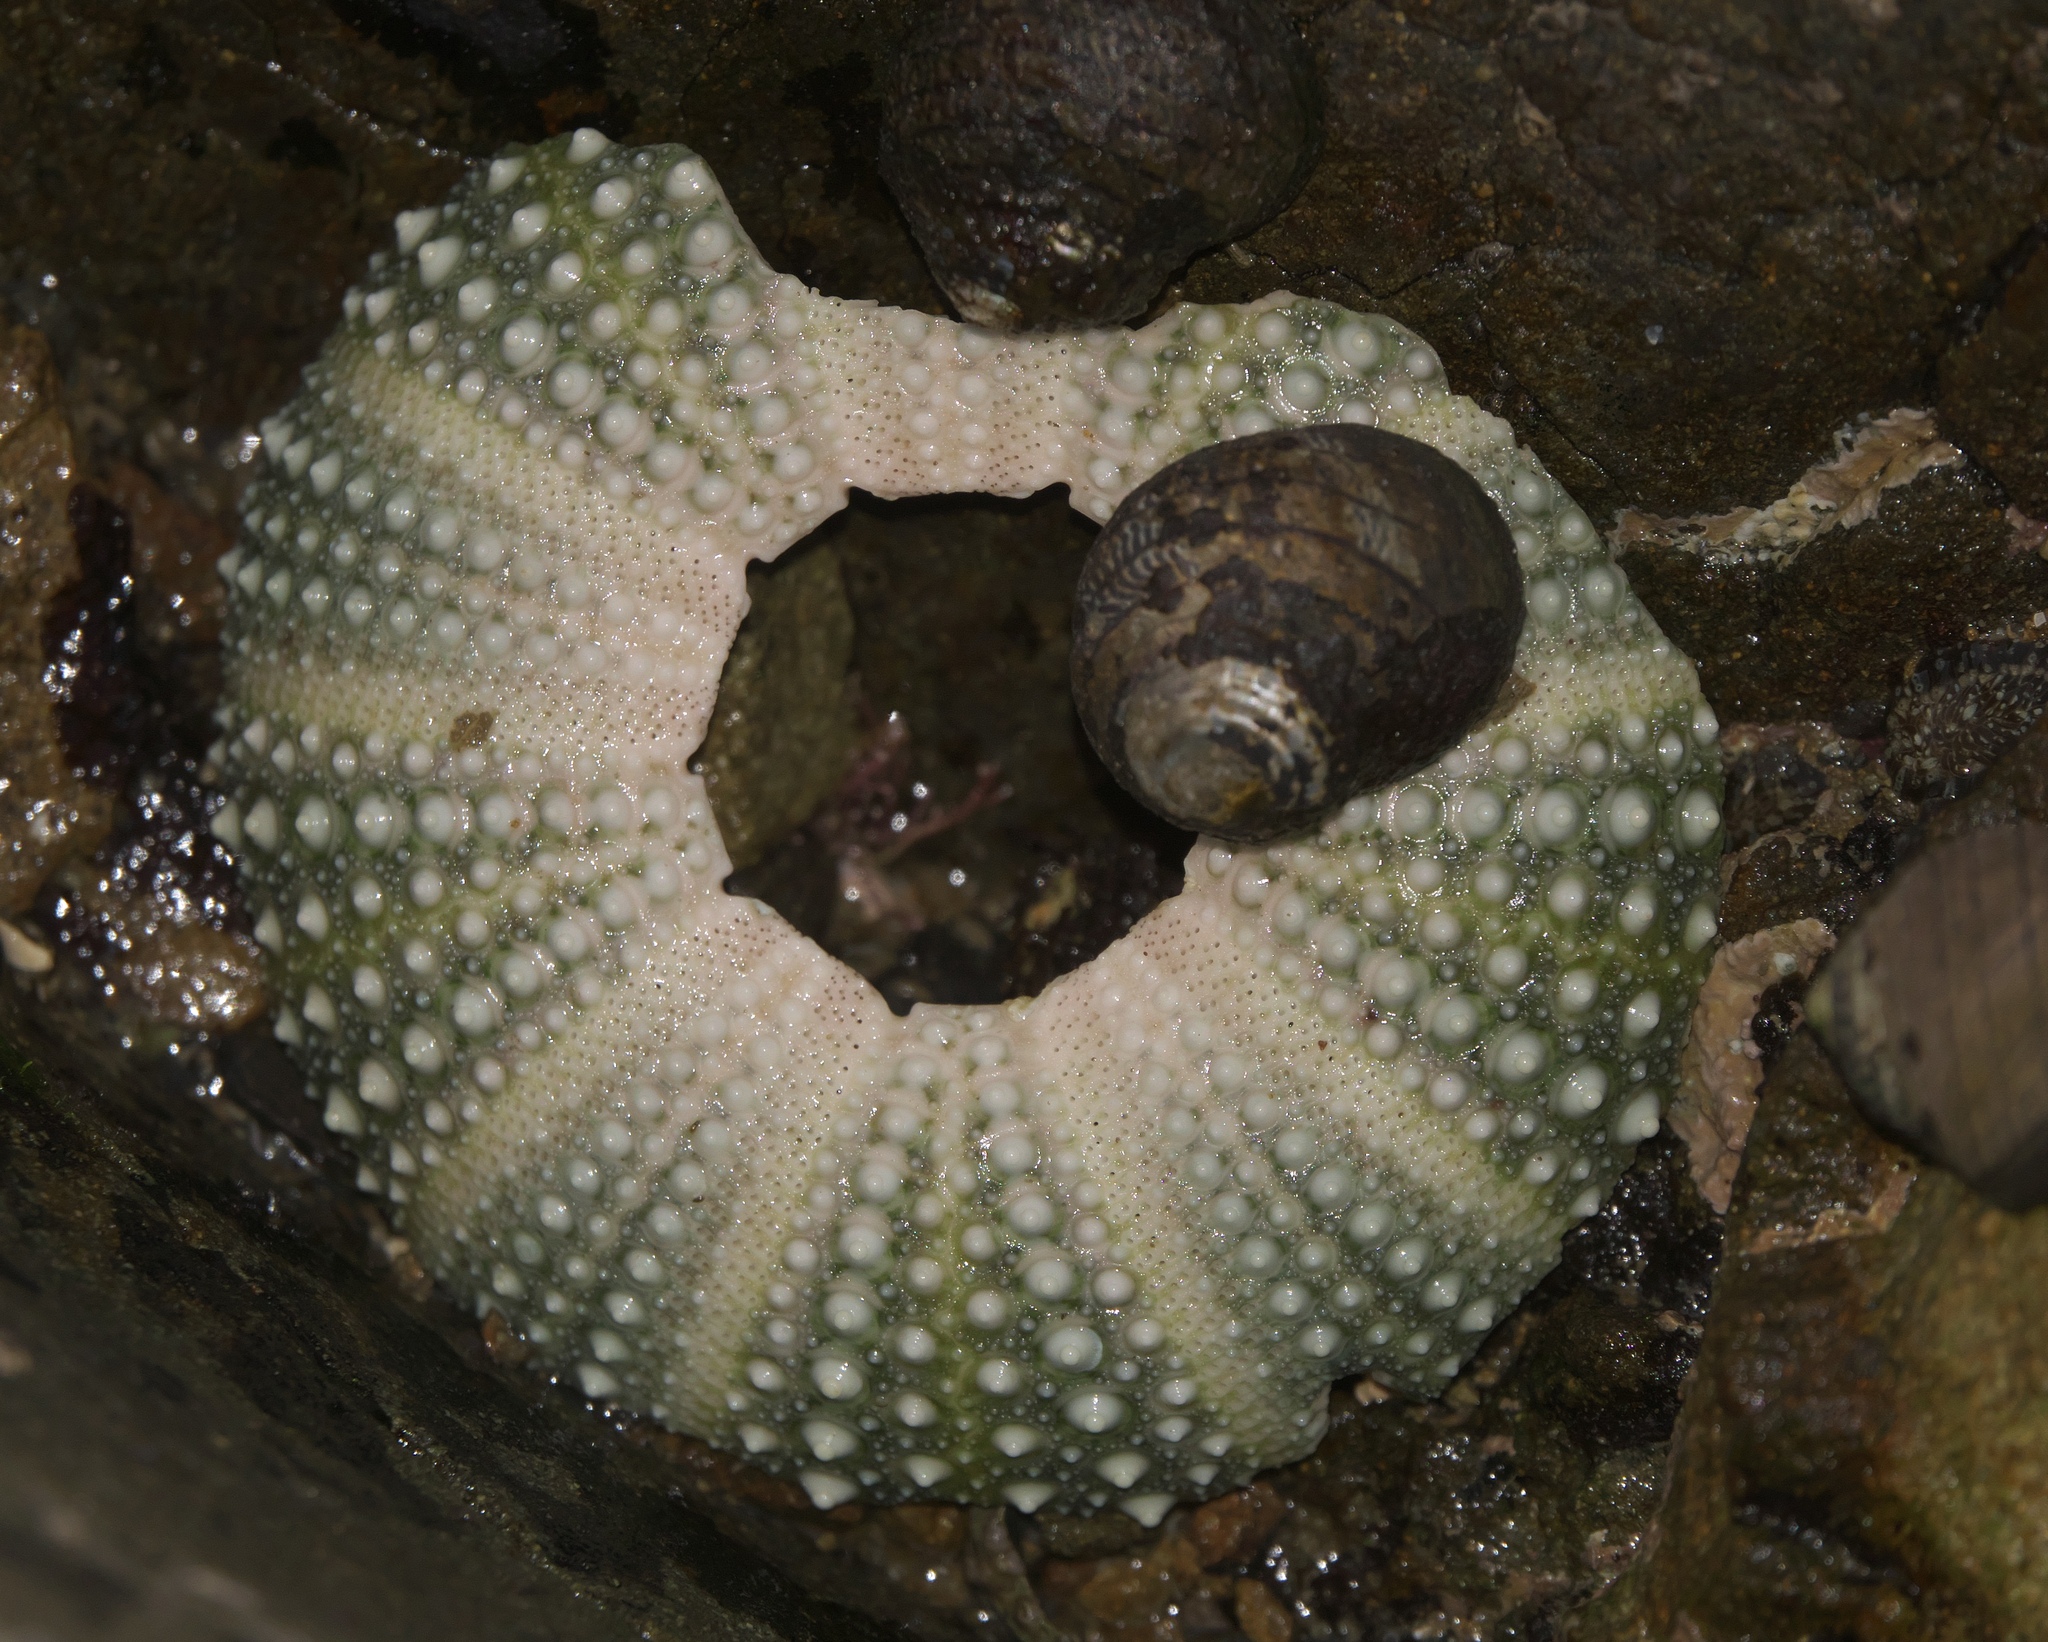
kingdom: Animalia
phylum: Mollusca
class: Gastropoda
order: Trochida
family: Trochidae
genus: Diloma
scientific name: Diloma aethiops
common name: Scorched monodont
